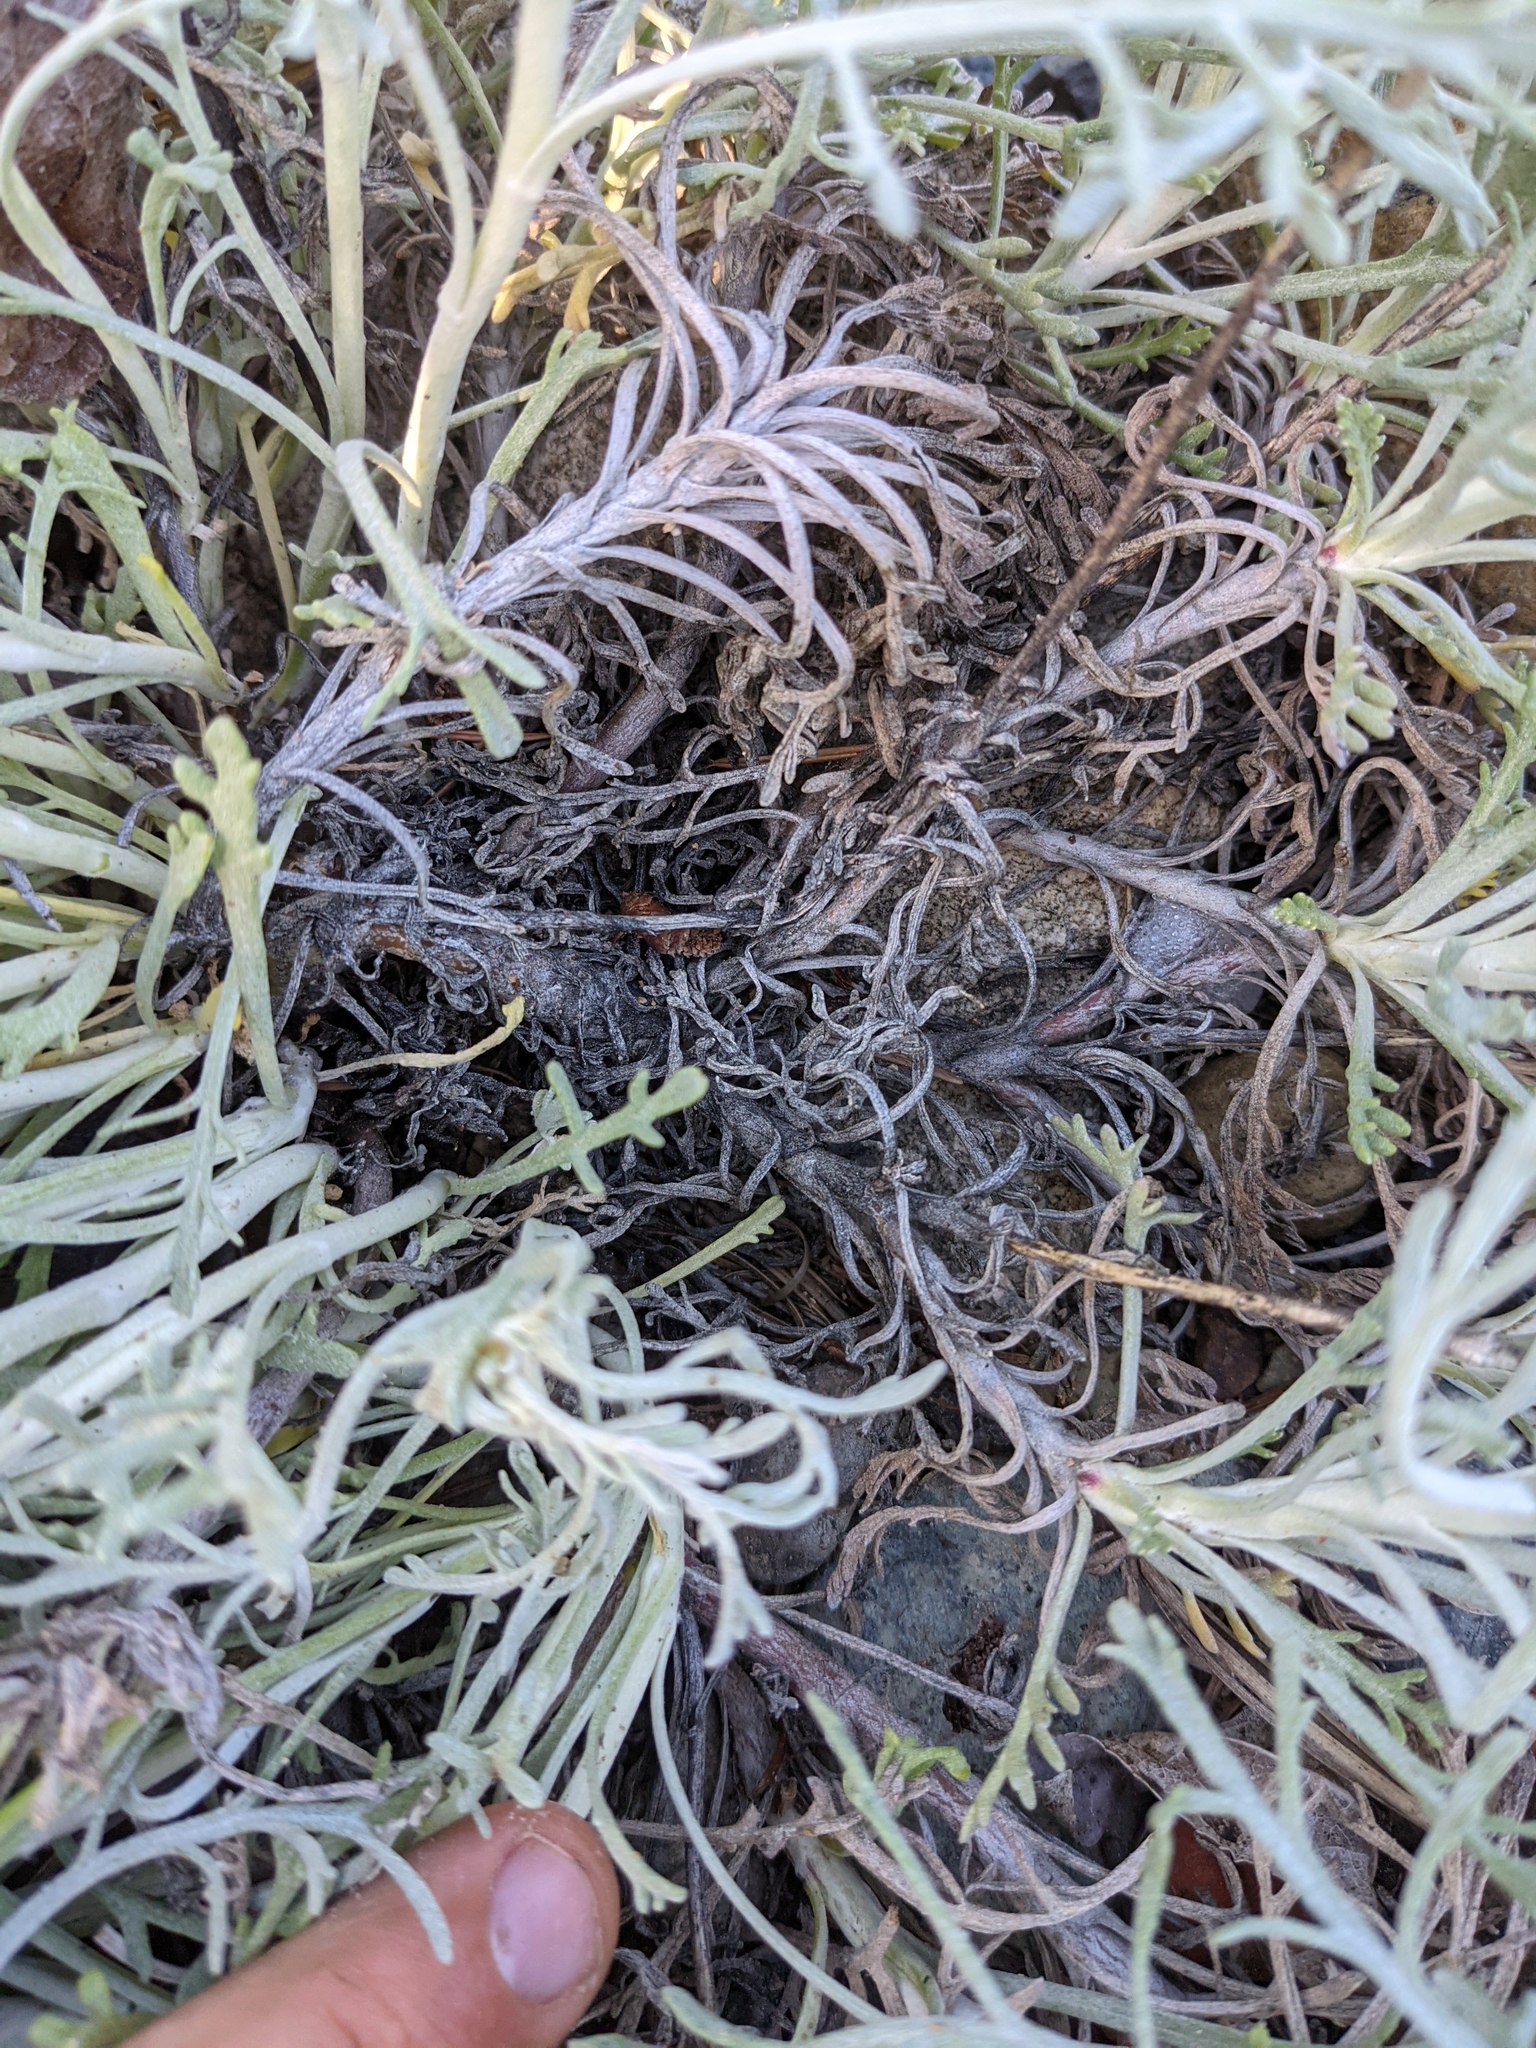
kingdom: Plantae
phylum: Tracheophyta
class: Magnoliopsida
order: Asterales
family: Asteraceae
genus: Chaenactis
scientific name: Chaenactis suffrutescens
